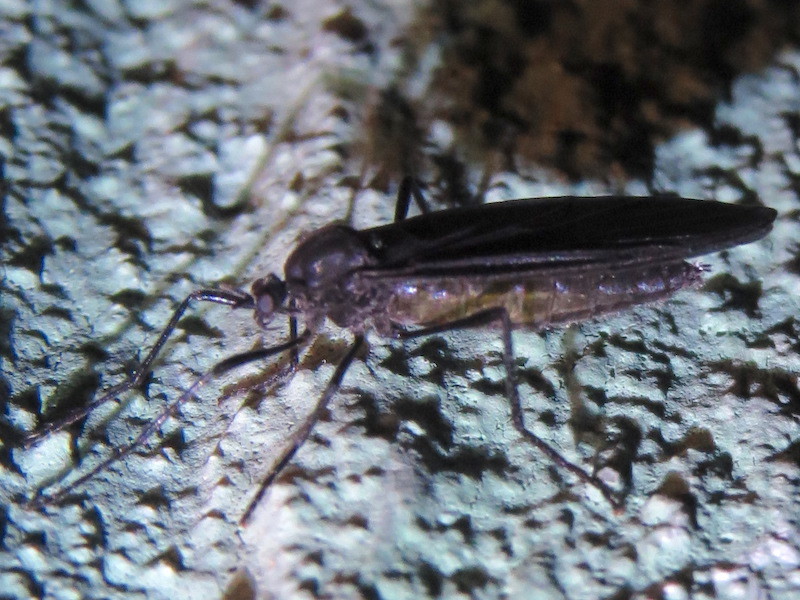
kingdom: Animalia
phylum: Arthropoda
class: Insecta
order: Diptera
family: Bibionidae
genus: Penthetria
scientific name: Penthetria heteroptera
